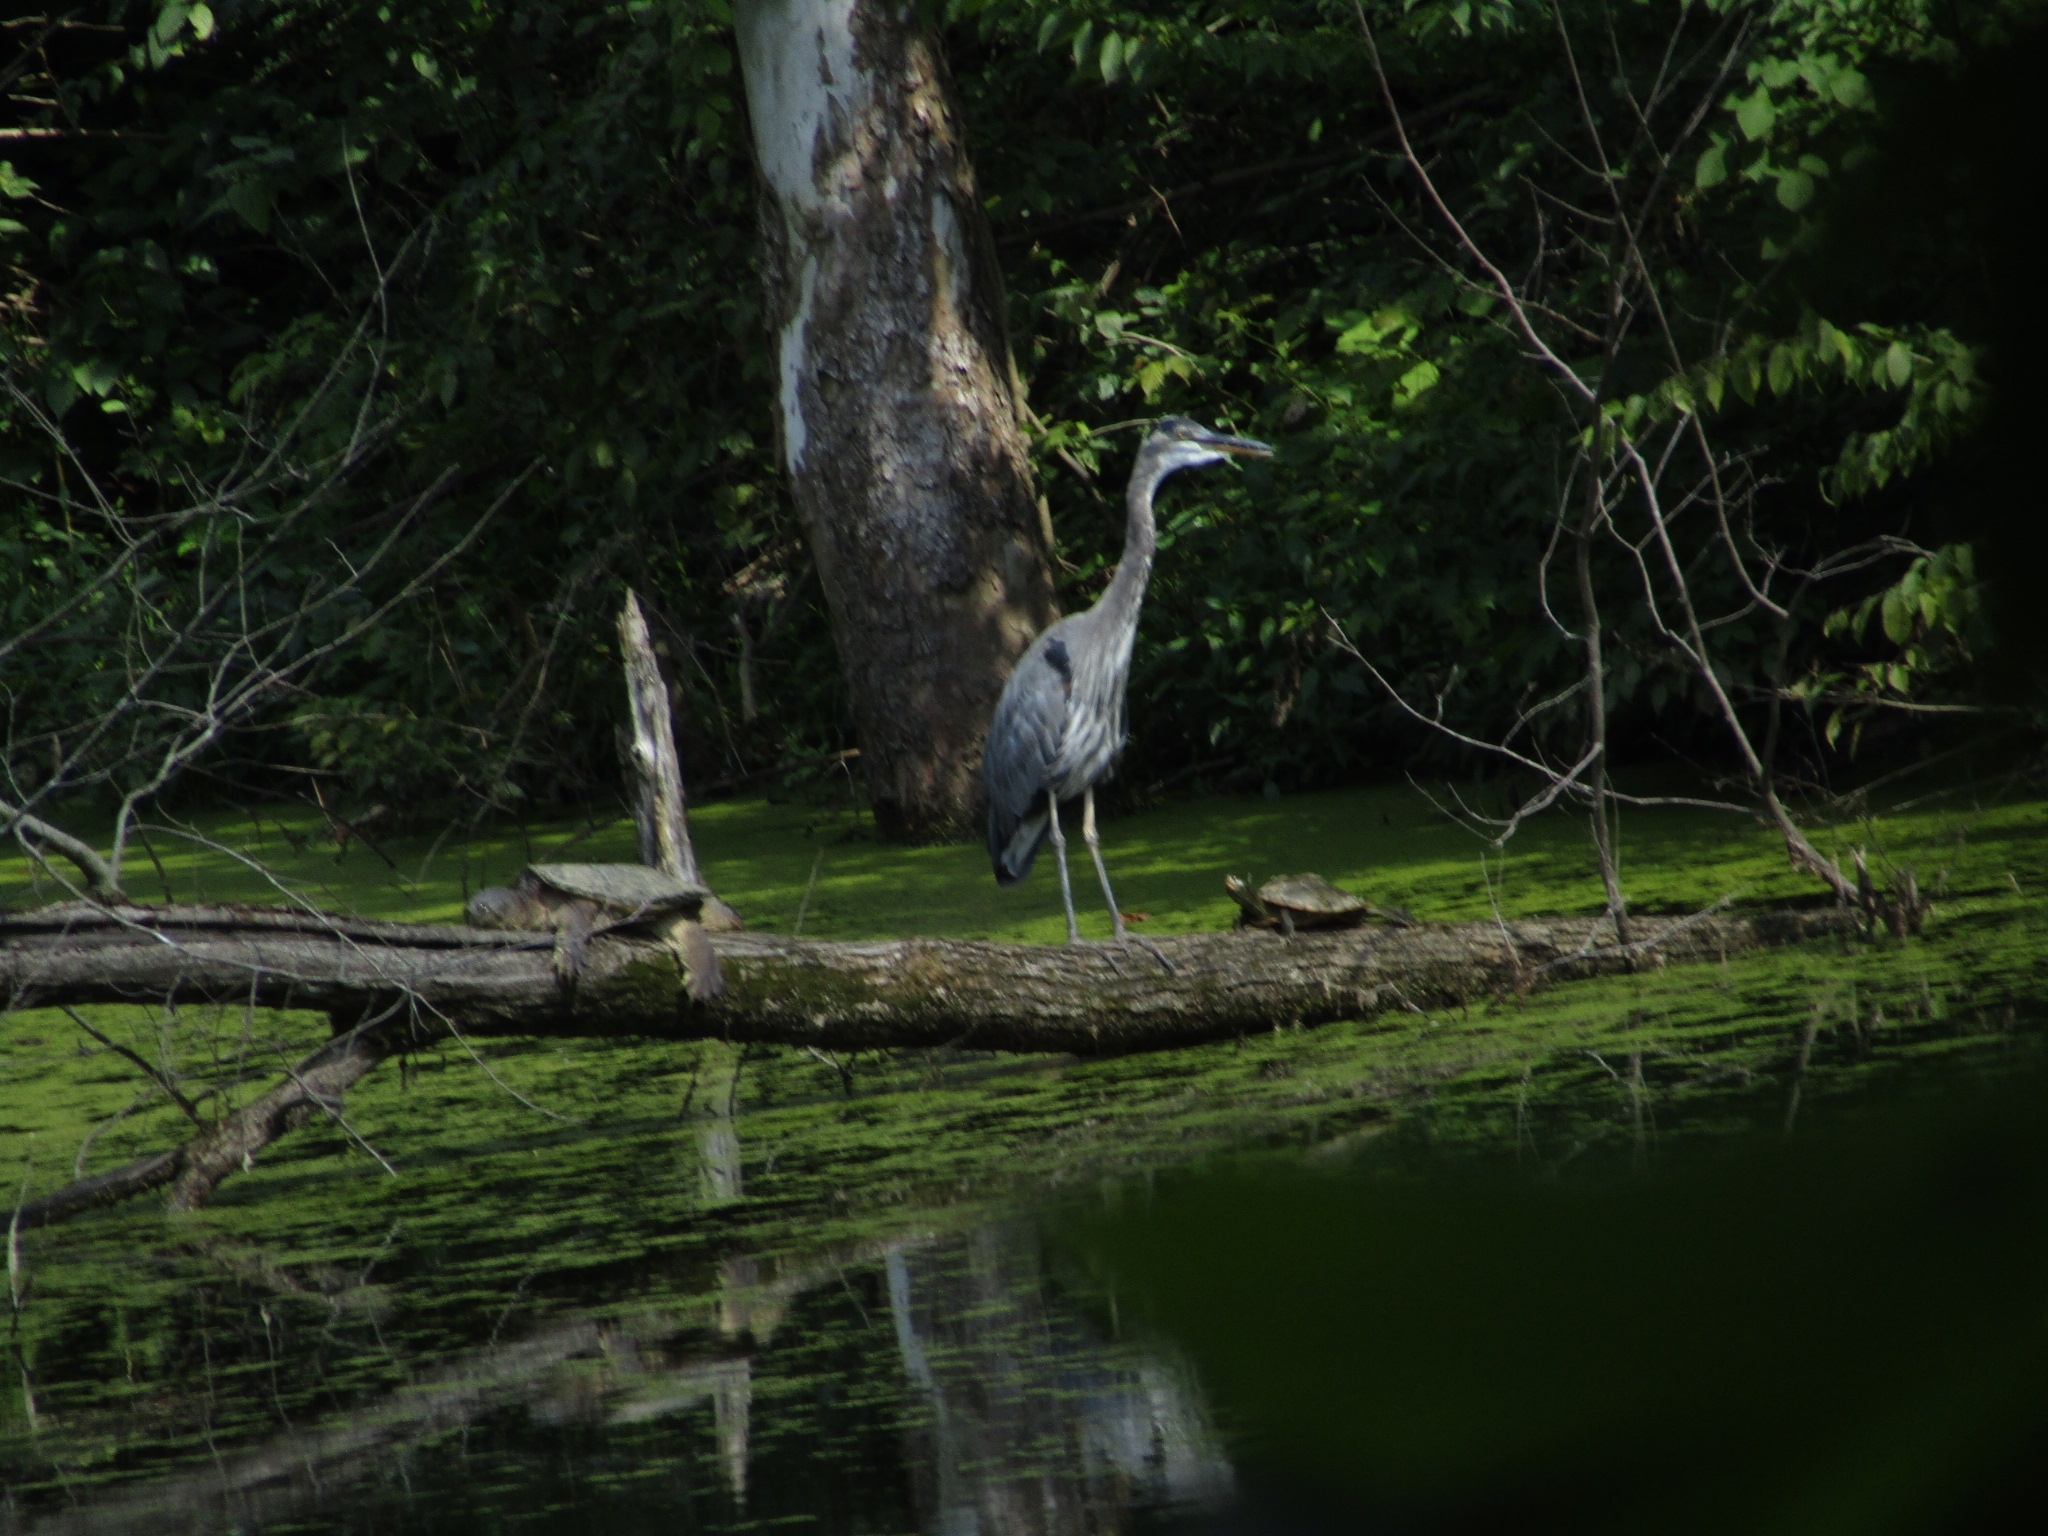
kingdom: Animalia
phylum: Chordata
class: Aves
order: Pelecaniformes
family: Ardeidae
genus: Ardea
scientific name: Ardea herodias
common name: Great blue heron
